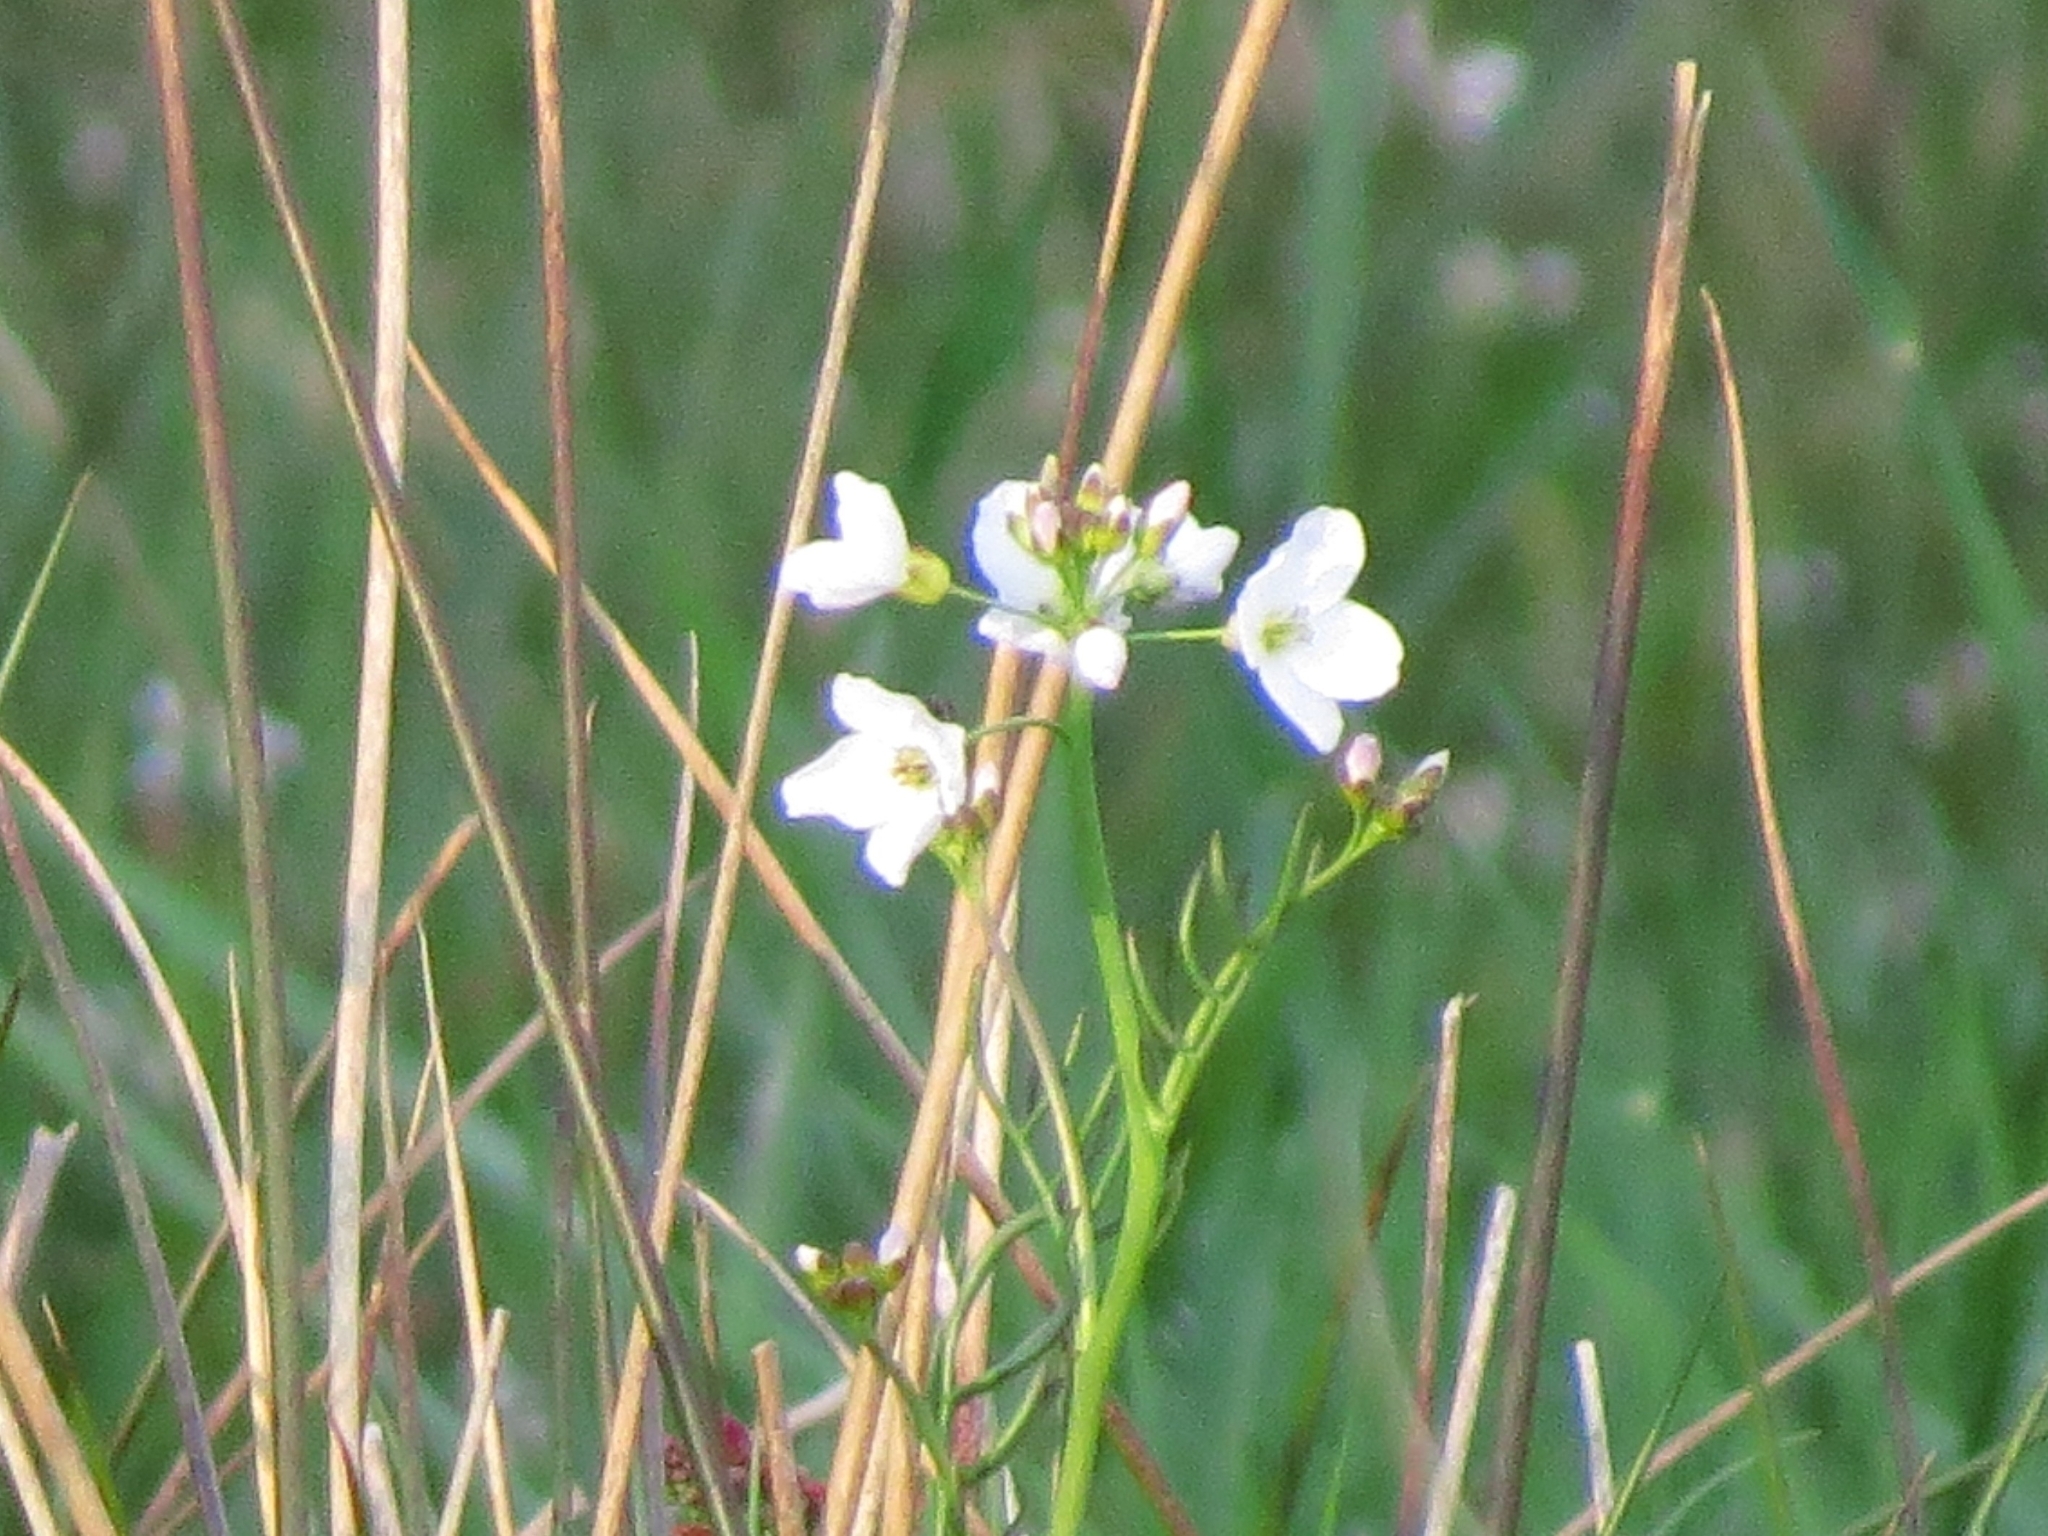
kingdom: Plantae
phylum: Tracheophyta
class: Magnoliopsida
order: Brassicales
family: Brassicaceae
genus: Cardamine
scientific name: Cardamine pratensis
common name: Cuckoo flower
